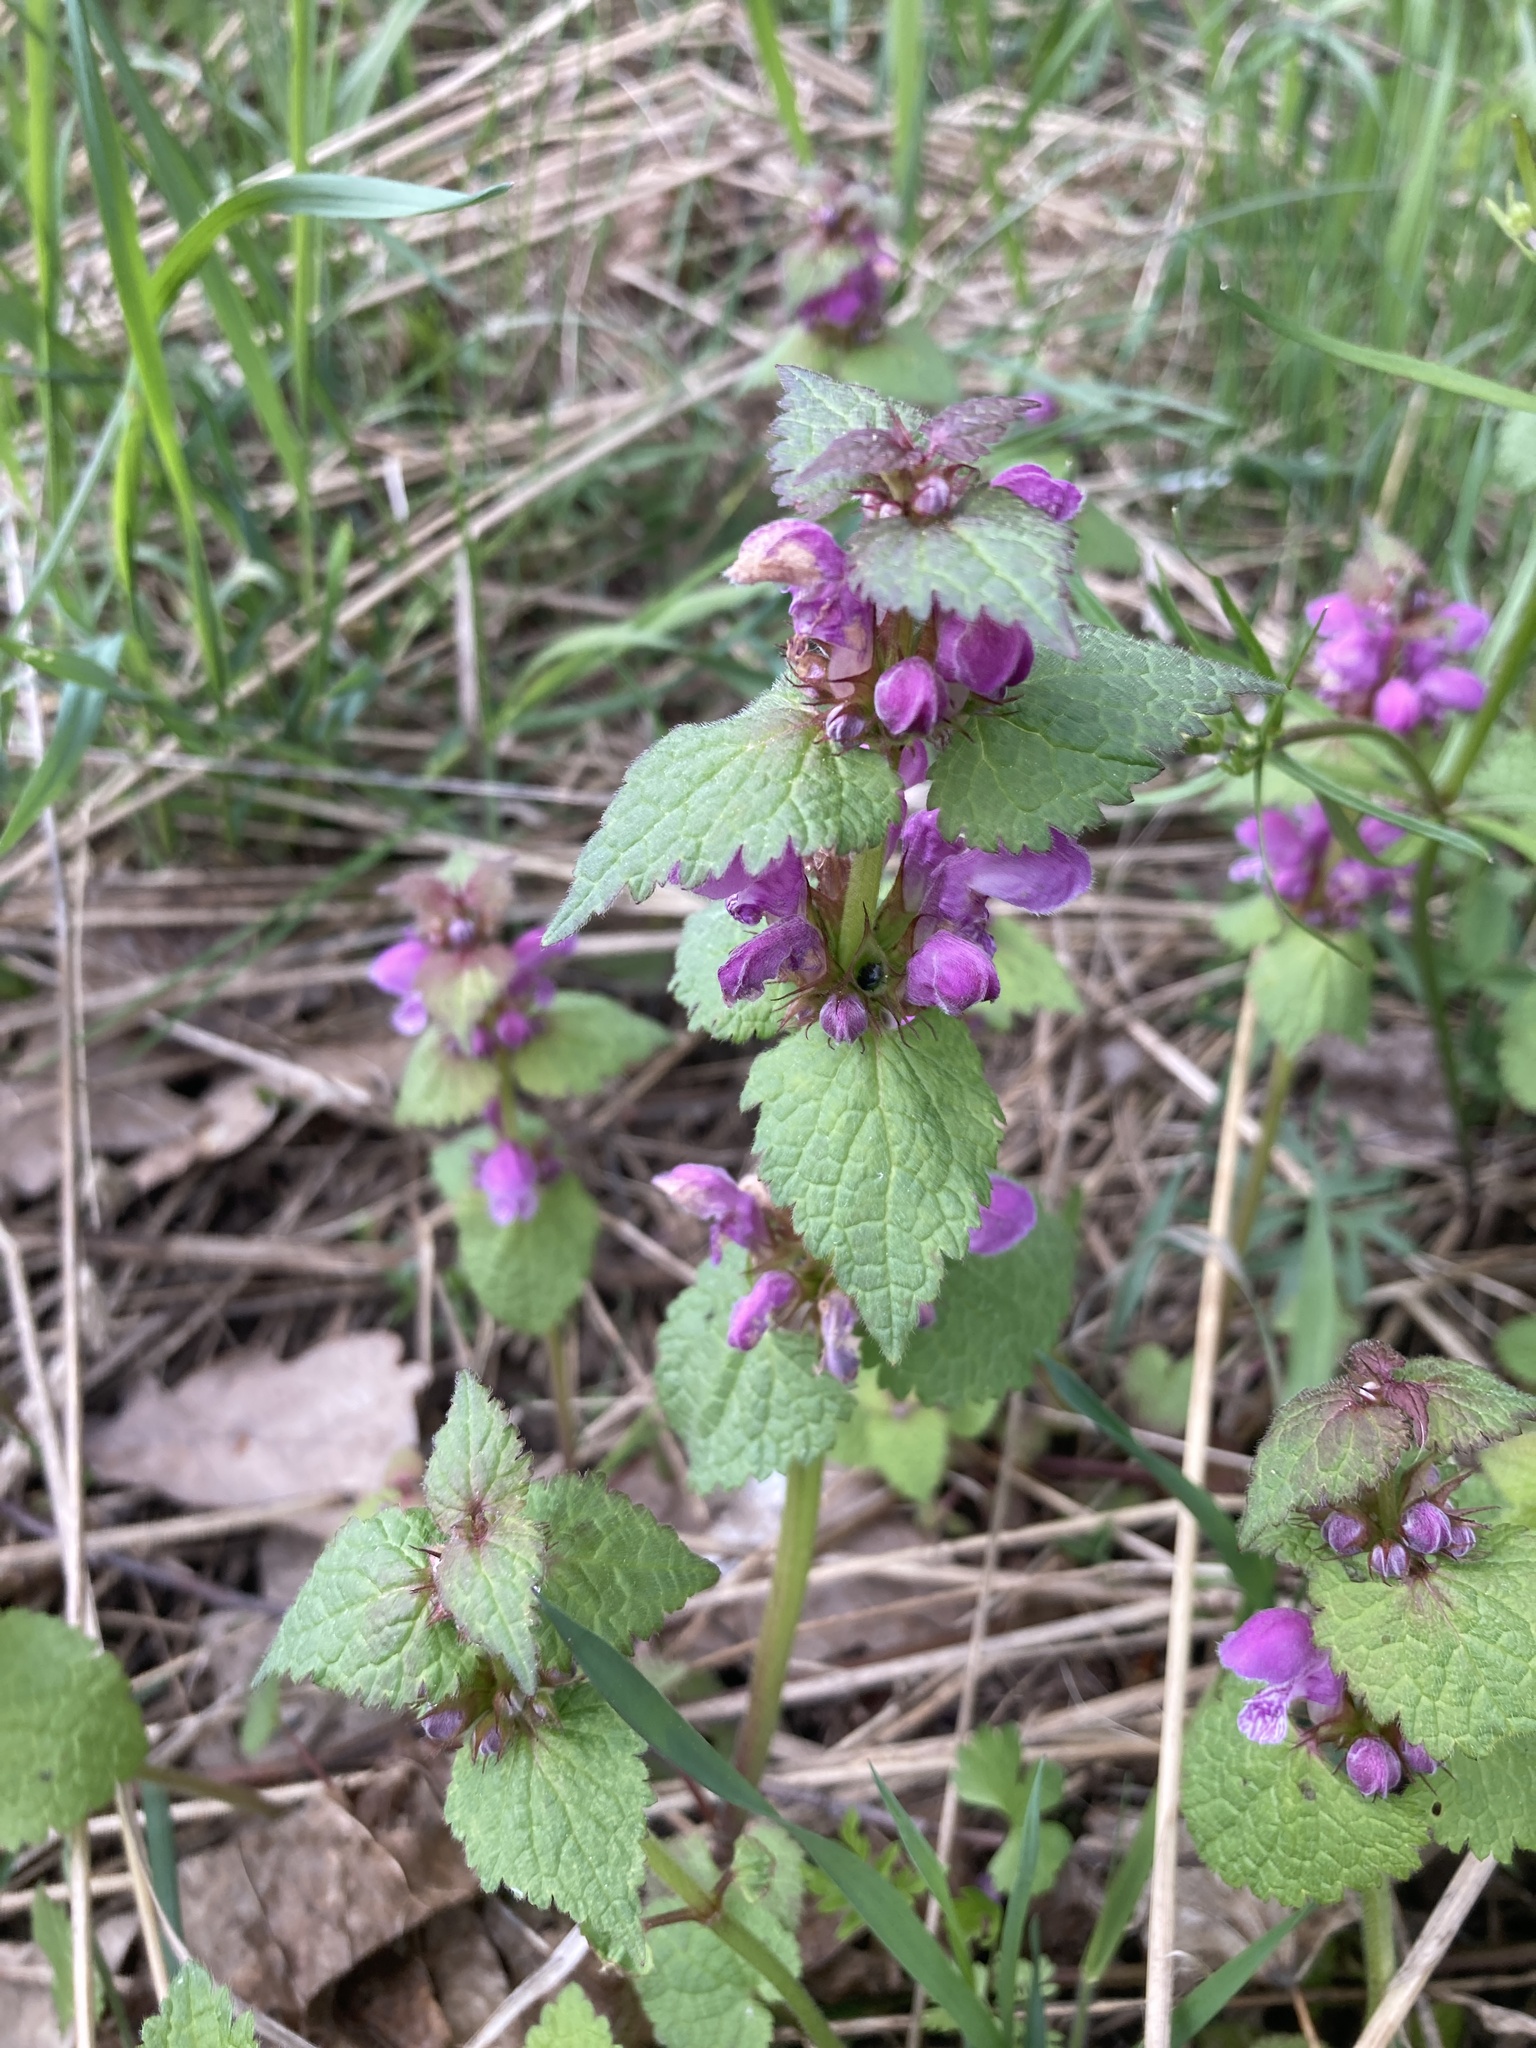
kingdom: Plantae
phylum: Tracheophyta
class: Magnoliopsida
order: Lamiales
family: Lamiaceae
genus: Lamium
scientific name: Lamium maculatum
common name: Spotted dead-nettle
